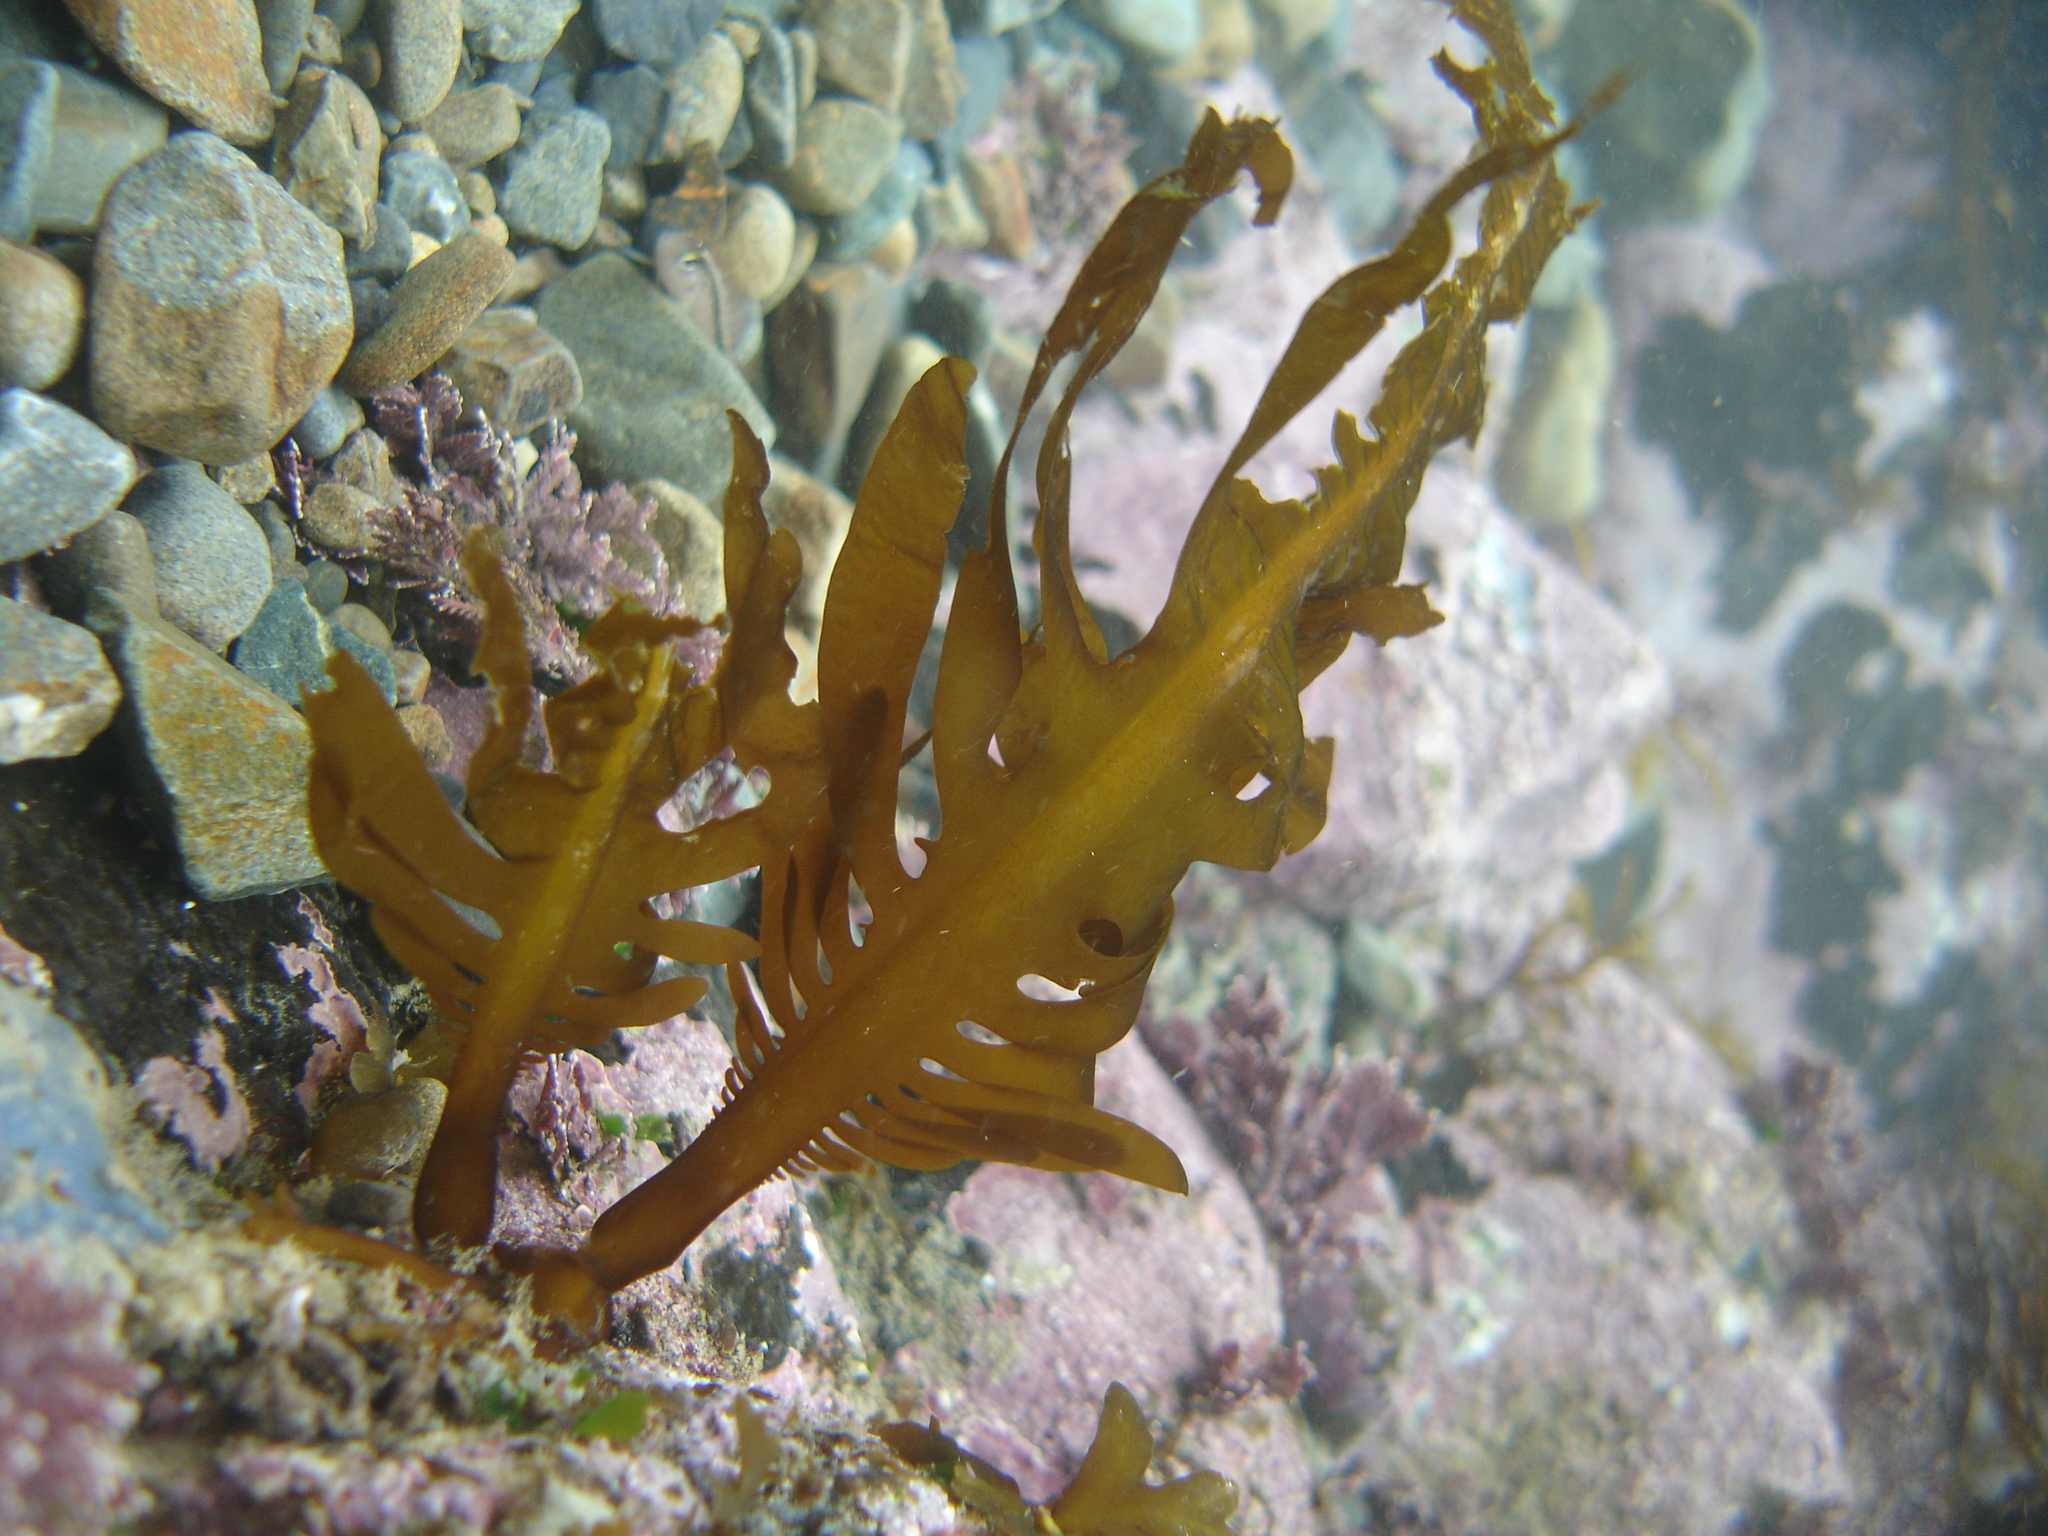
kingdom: Chromista
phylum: Ochrophyta
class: Phaeophyceae
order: Laminariales
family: Alariaceae
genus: Undaria
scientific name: Undaria pinnatifida
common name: Asian kelp
